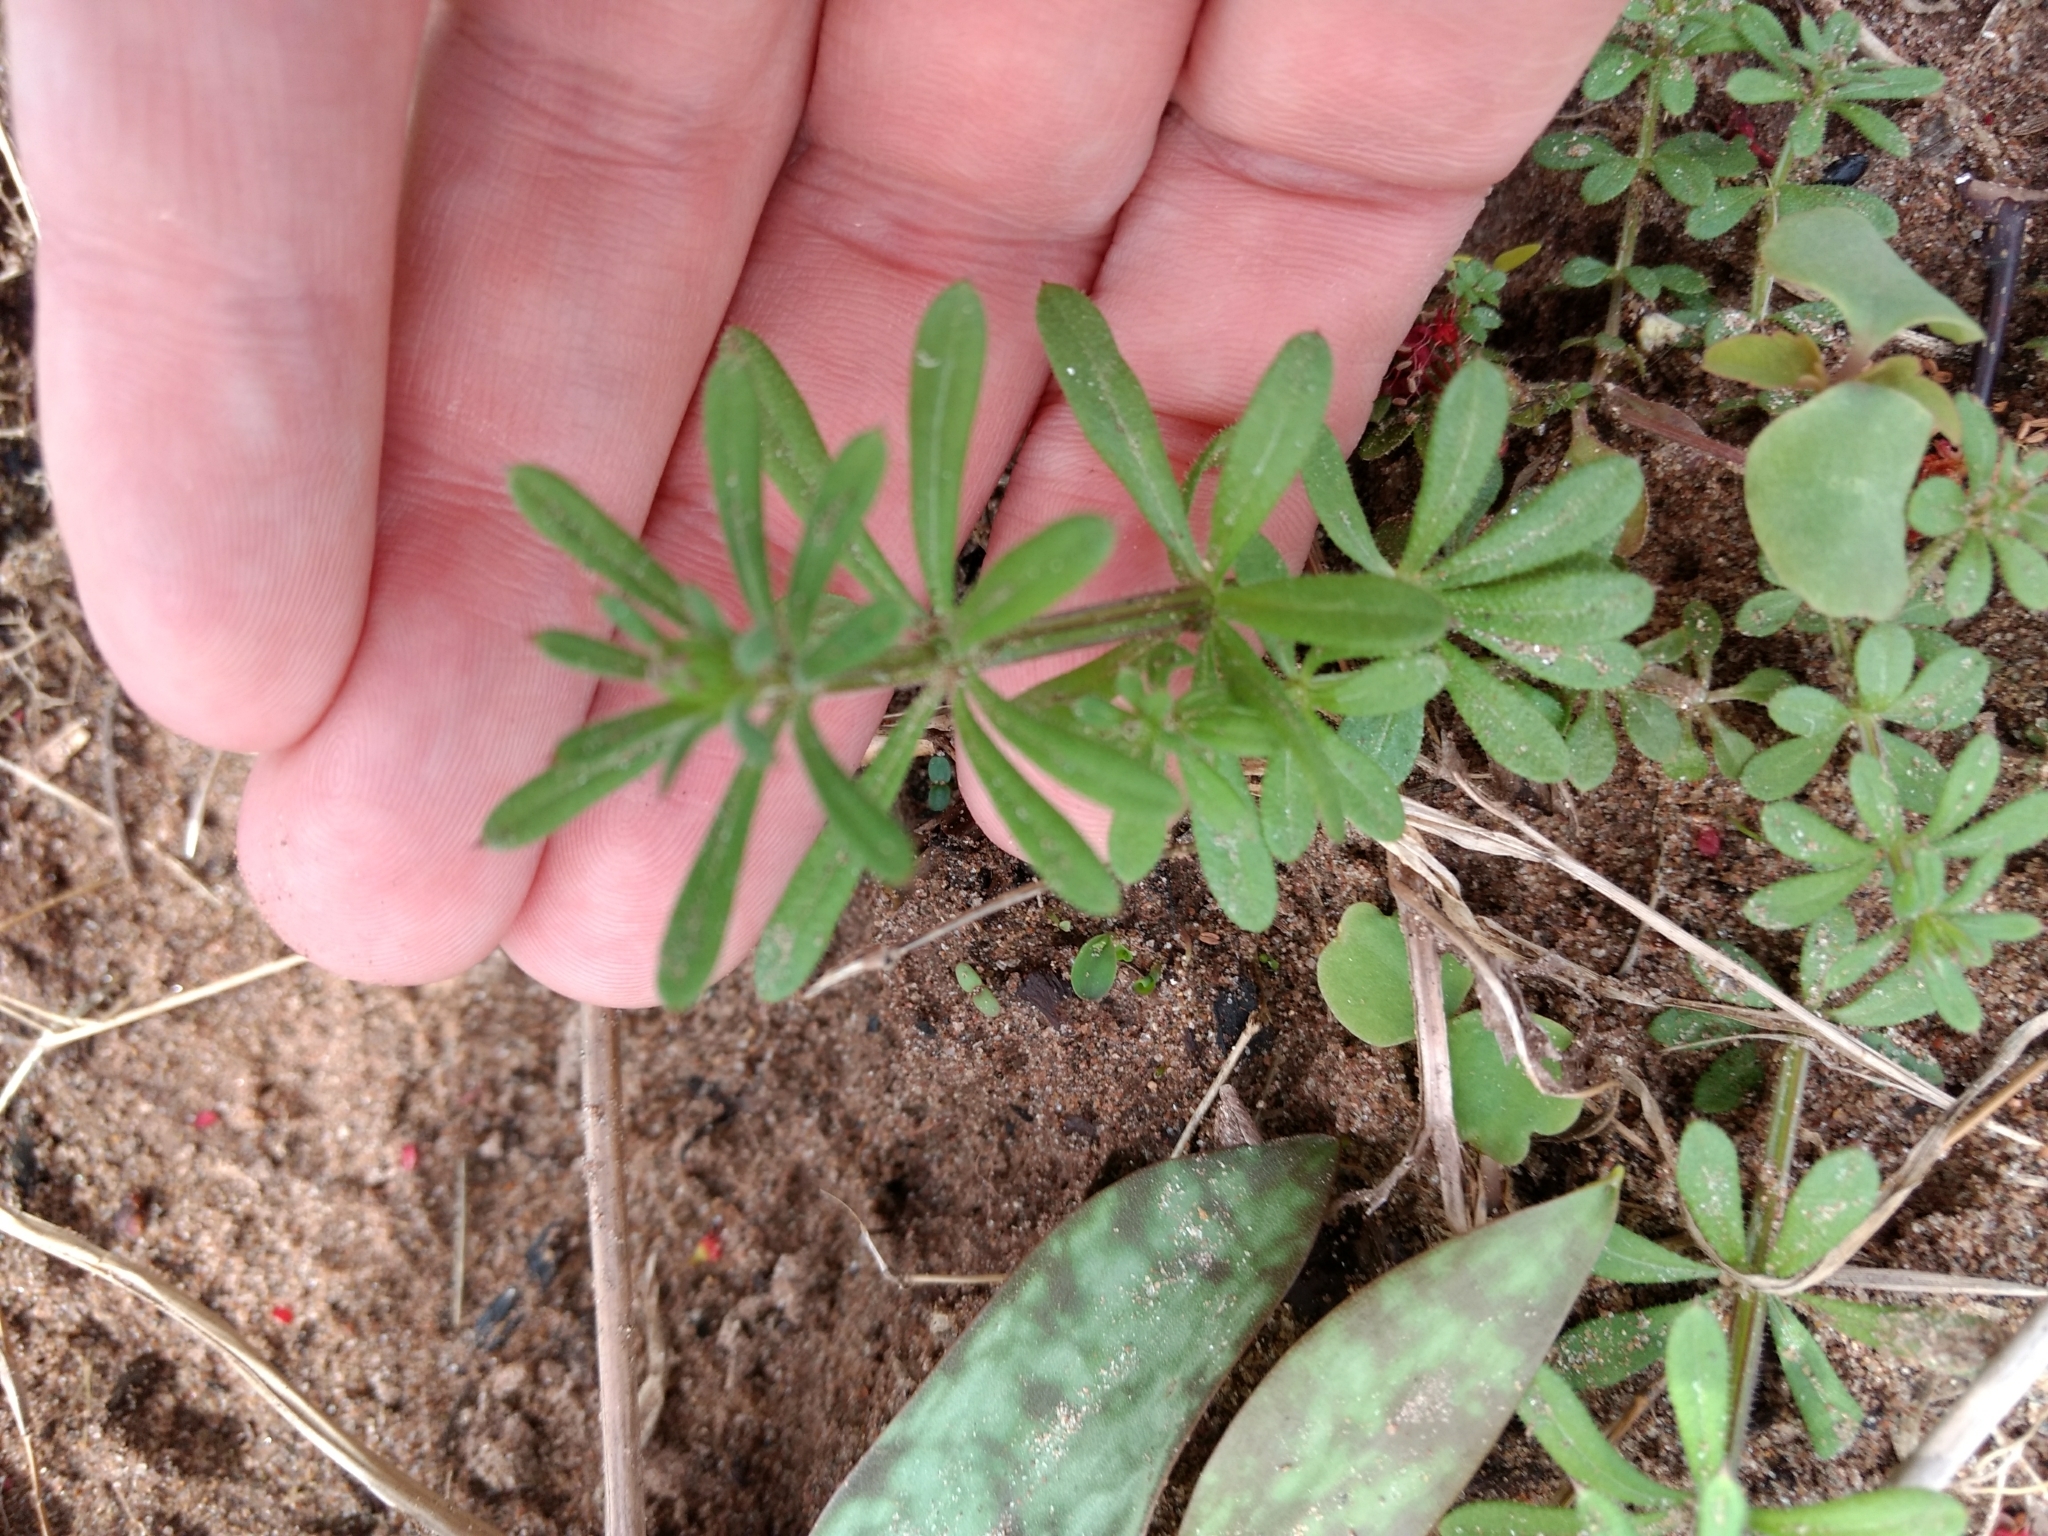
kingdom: Plantae
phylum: Tracheophyta
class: Magnoliopsida
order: Gentianales
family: Rubiaceae
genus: Galium
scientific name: Galium aparine
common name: Cleavers
